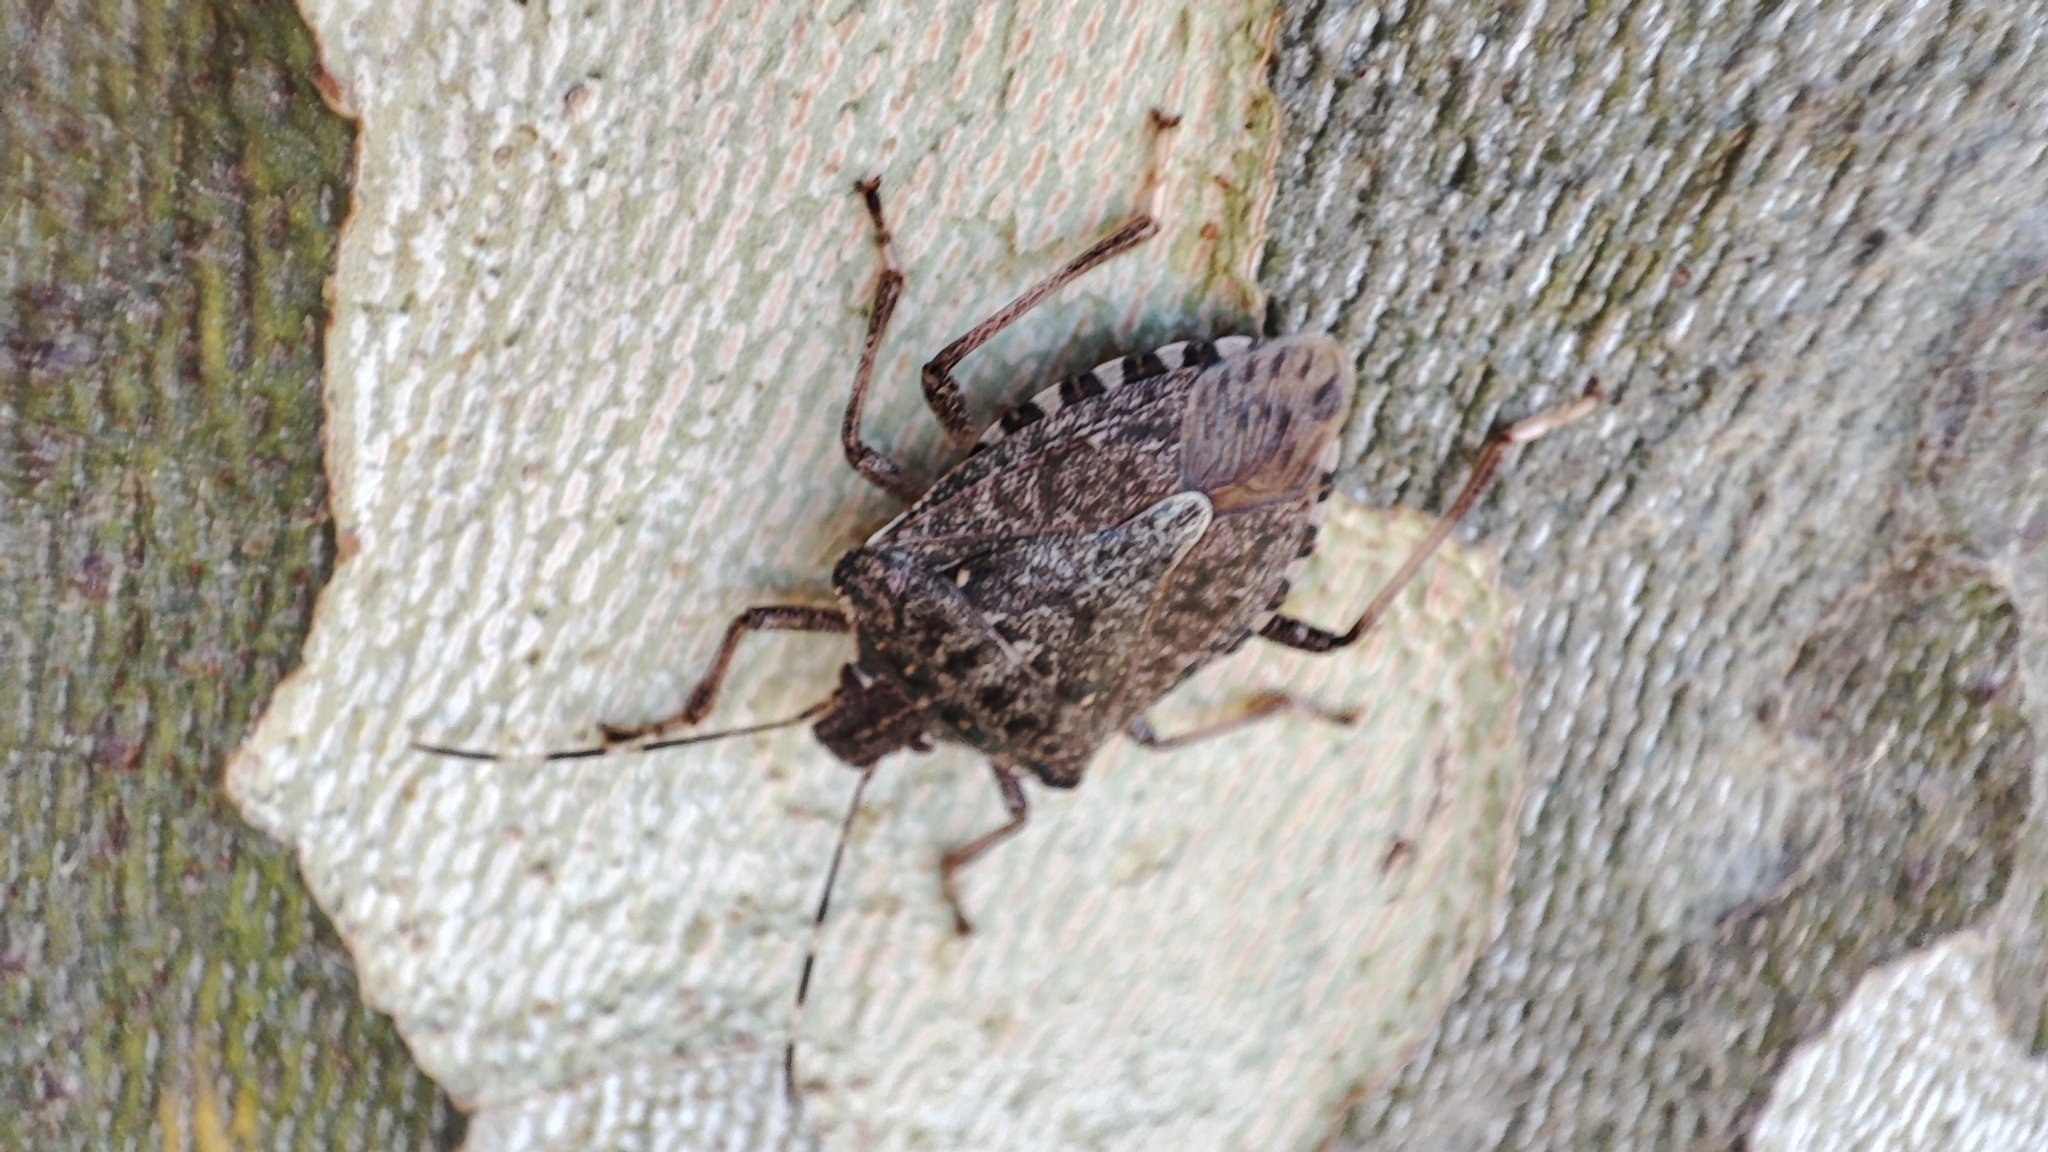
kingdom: Animalia
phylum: Arthropoda
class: Insecta
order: Hemiptera
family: Pentatomidae
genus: Halyomorpha
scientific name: Halyomorpha halys
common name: Brown marmorated stink bug
